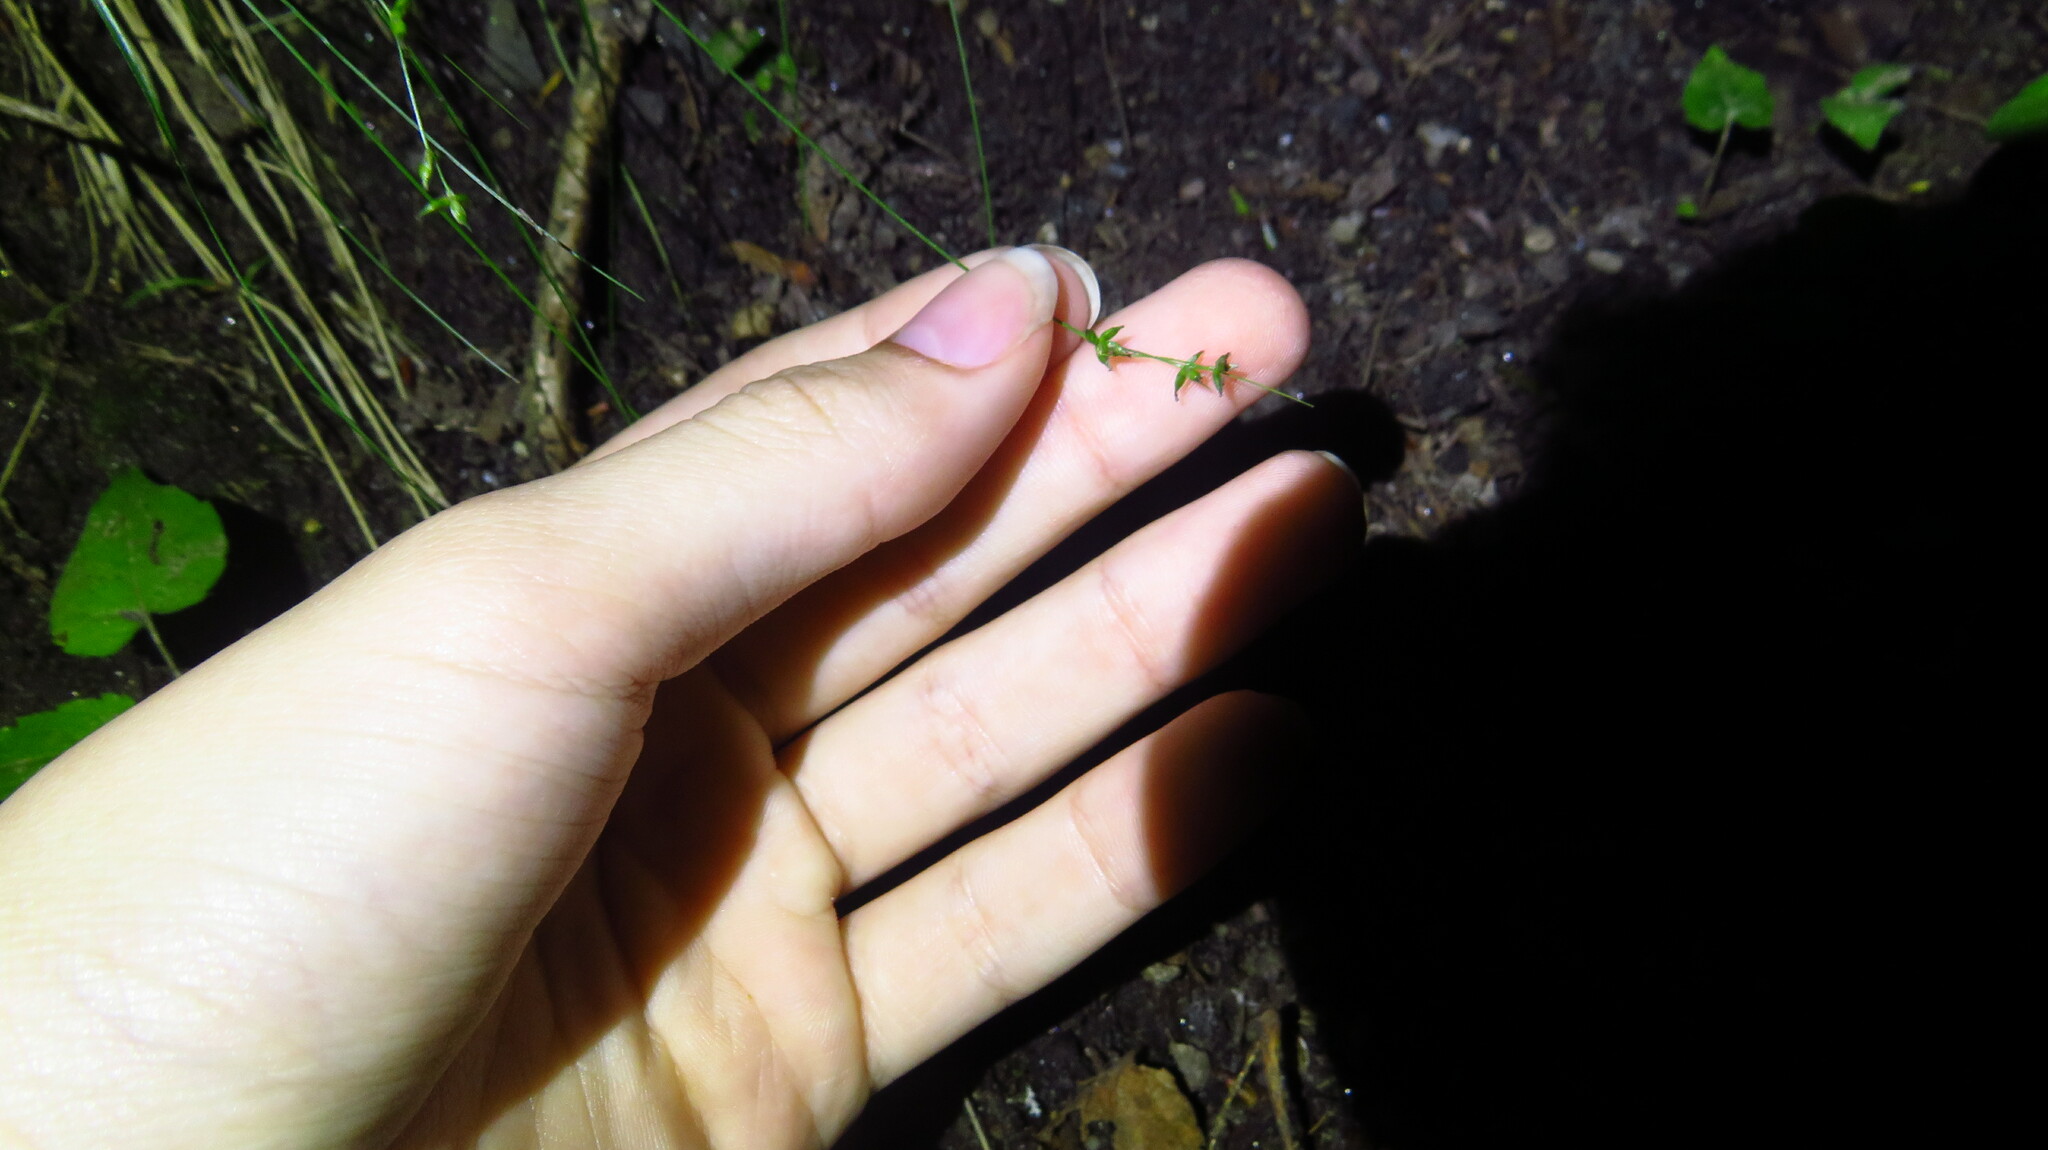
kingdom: Plantae
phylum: Tracheophyta
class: Liliopsida
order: Poales
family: Cyperaceae
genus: Carex
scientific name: Carex rosea
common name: Curly-styled wood sedge
